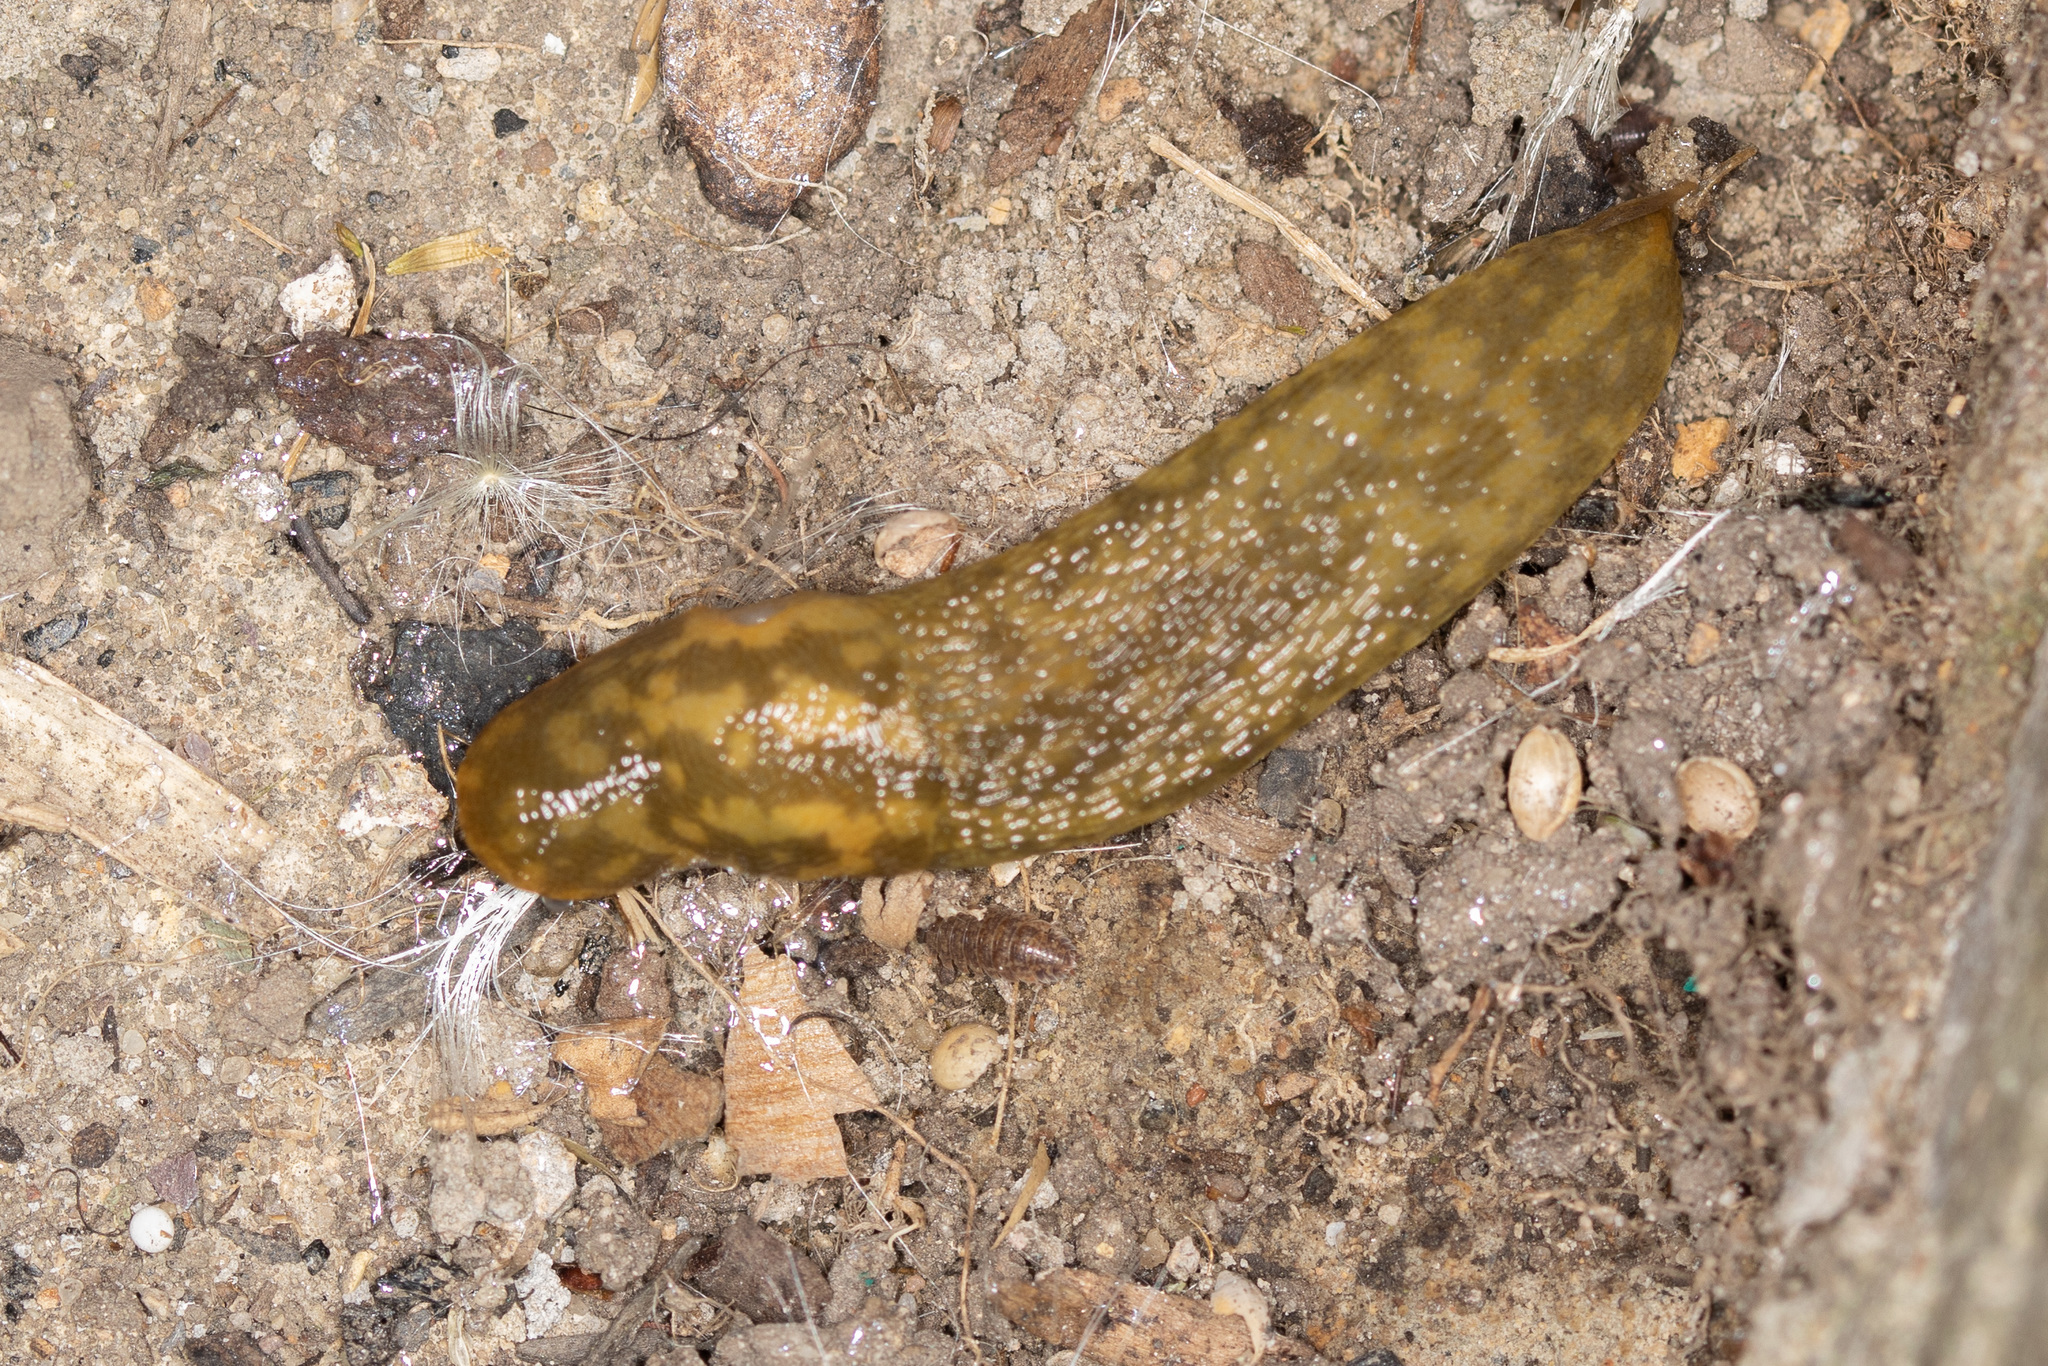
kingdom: Animalia
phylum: Mollusca
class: Gastropoda
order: Stylommatophora
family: Limacidae
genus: Limacus
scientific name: Limacus maculatus
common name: Irish yellow slug
